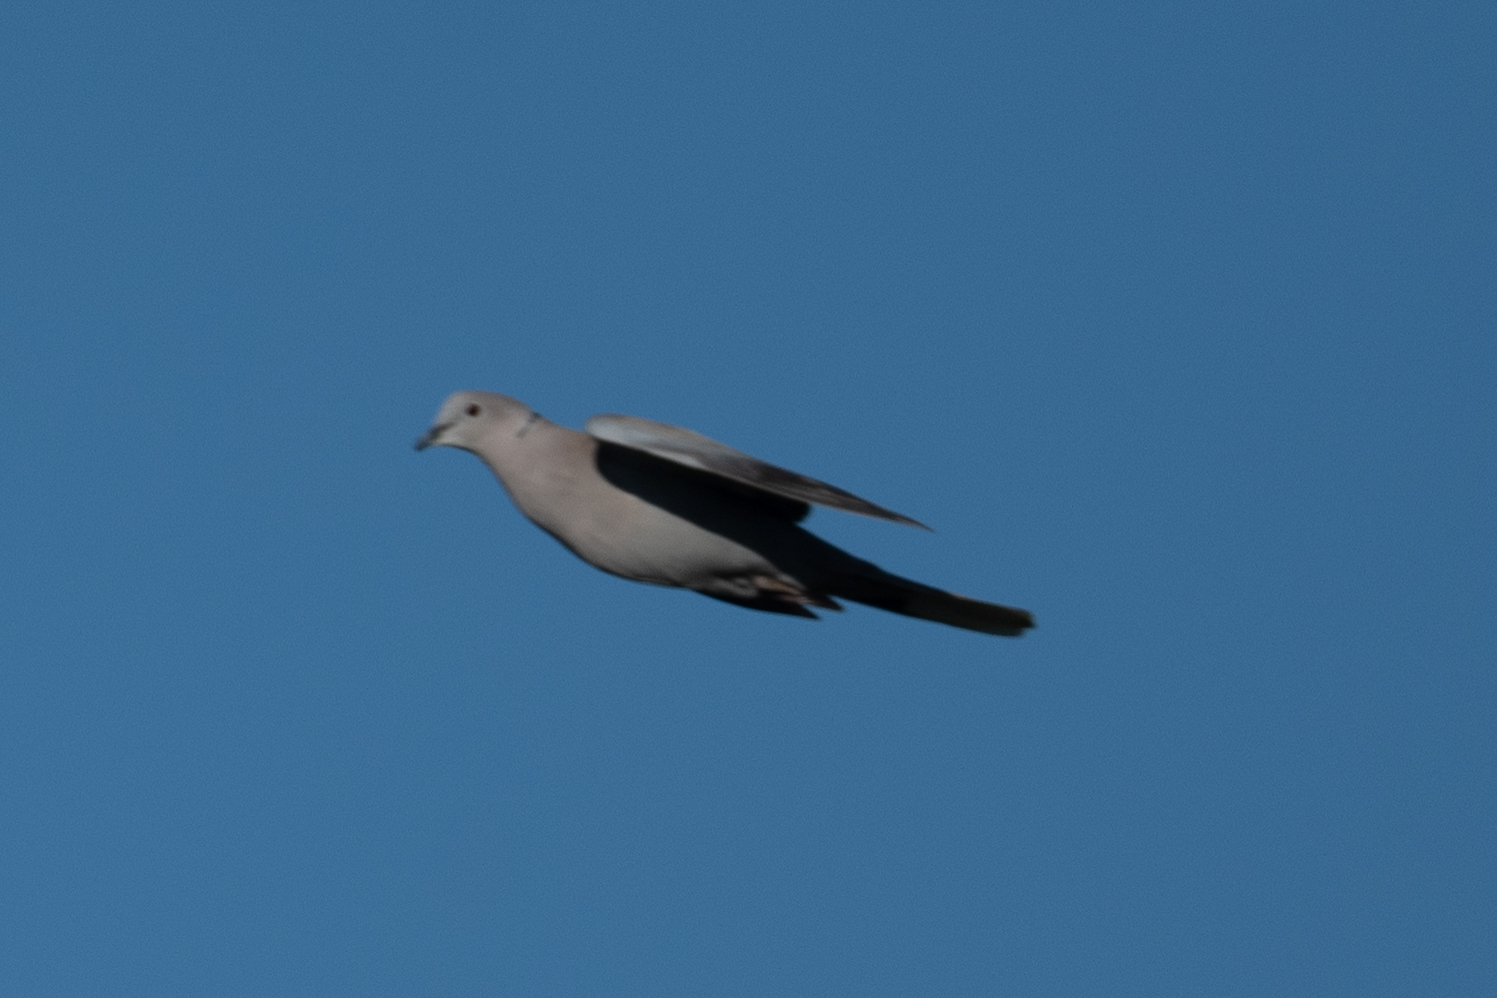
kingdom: Animalia
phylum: Chordata
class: Aves
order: Columbiformes
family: Columbidae
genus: Streptopelia
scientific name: Streptopelia decaocto
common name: Eurasian collared dove
